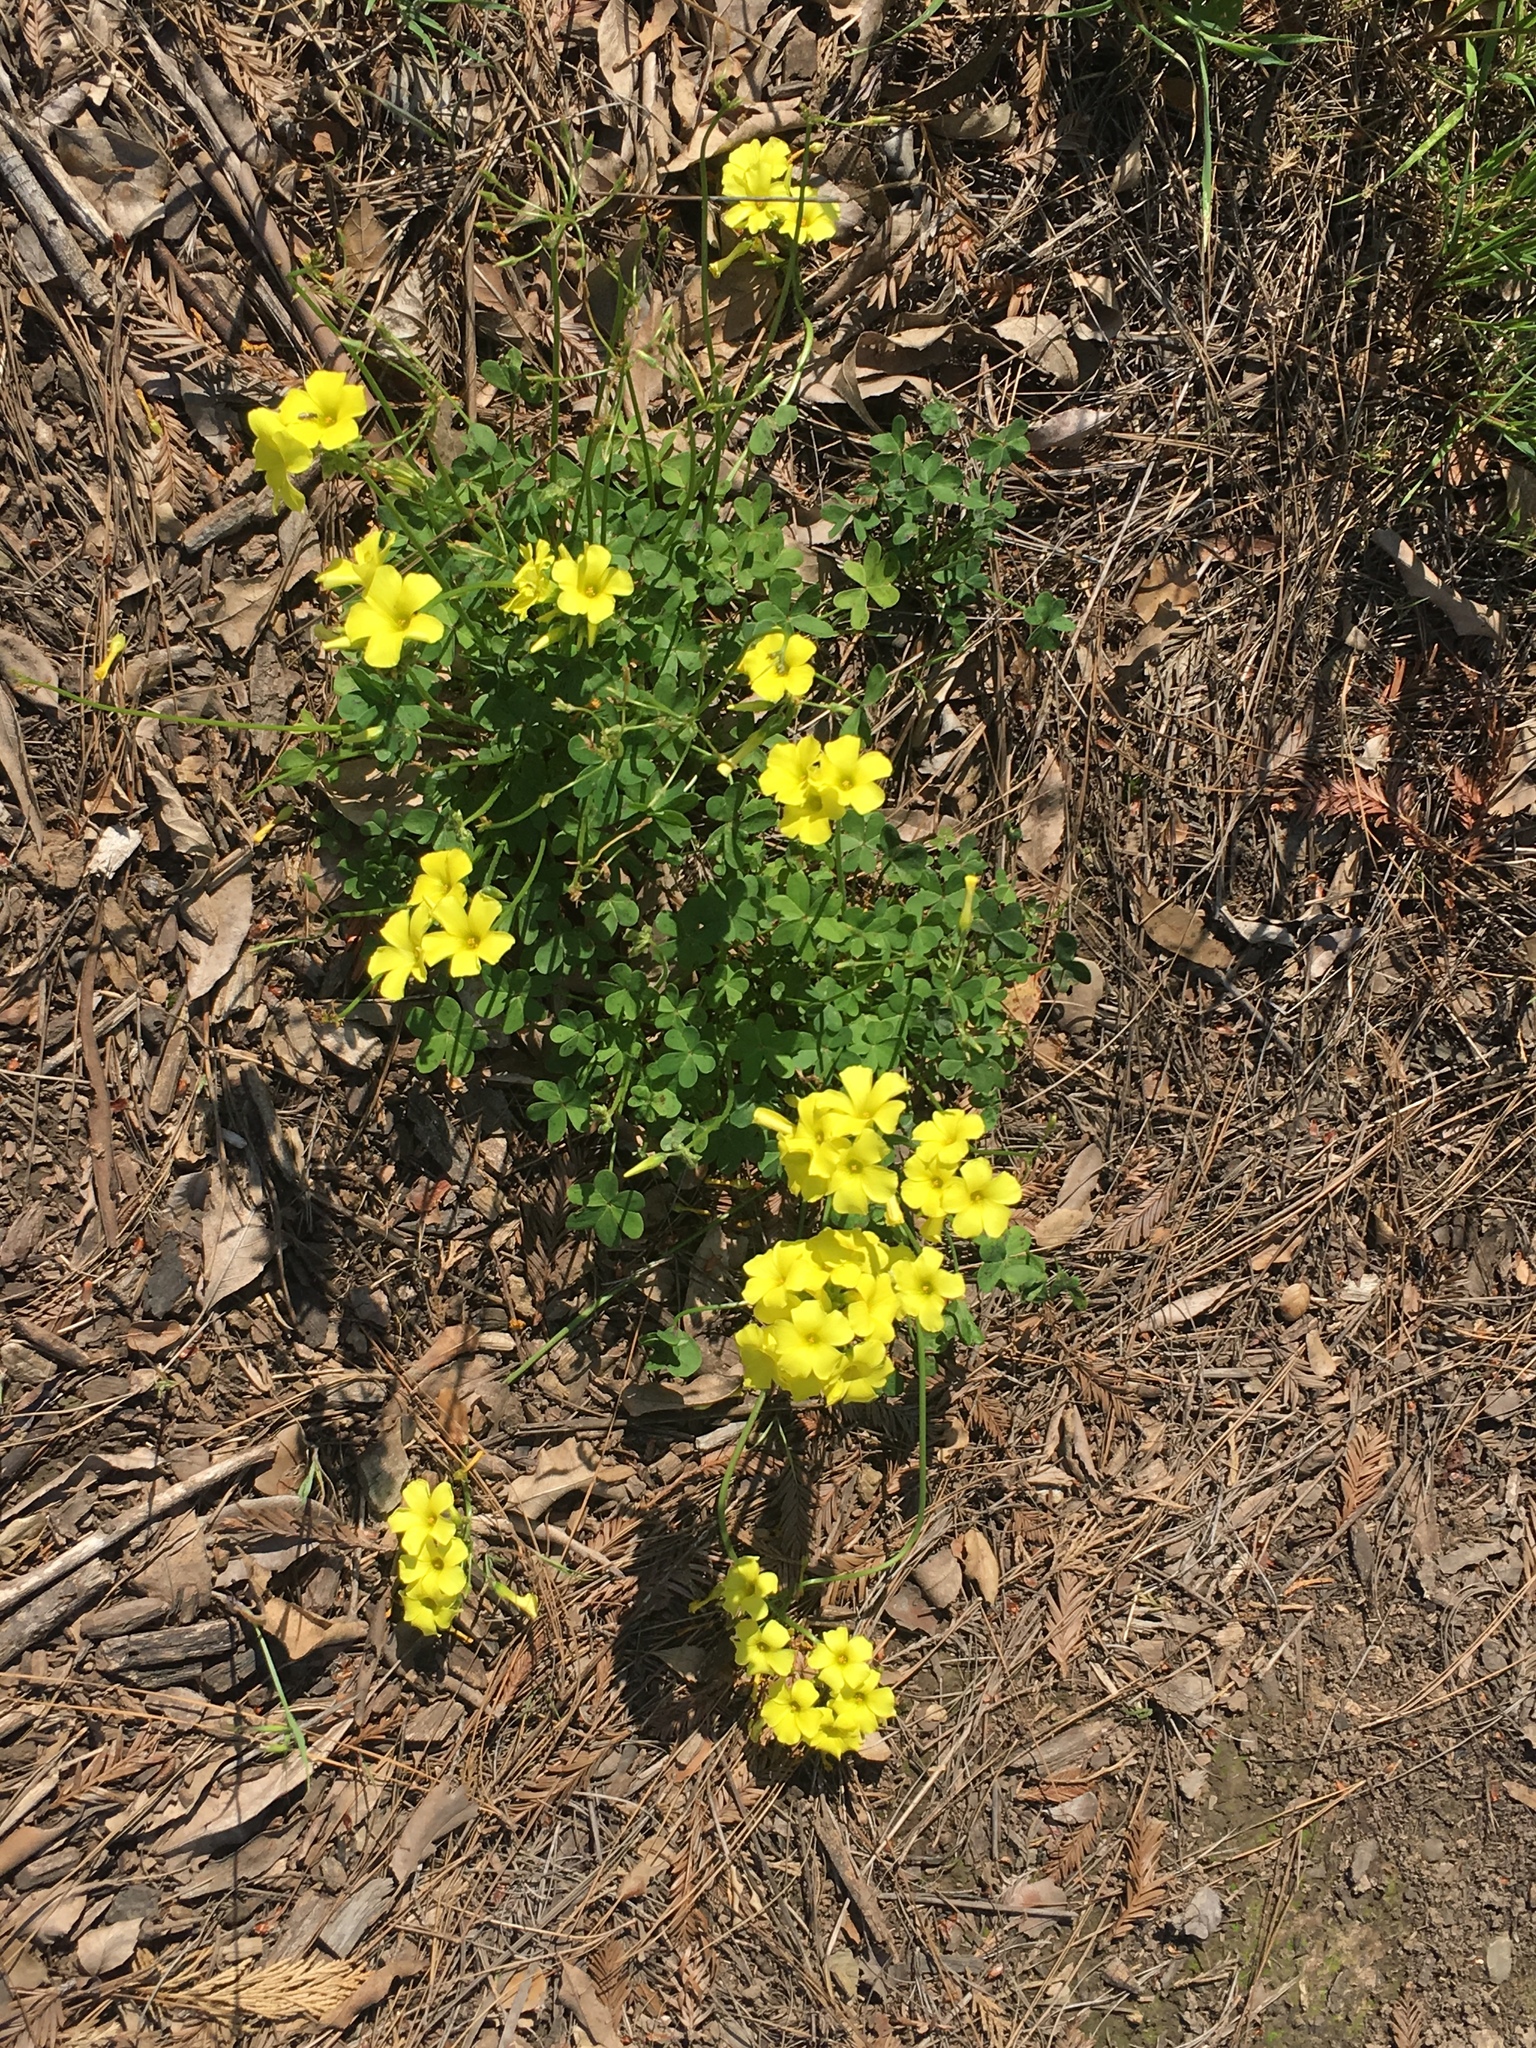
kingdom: Plantae
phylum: Tracheophyta
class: Magnoliopsida
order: Oxalidales
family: Oxalidaceae
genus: Oxalis
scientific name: Oxalis pes-caprae
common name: Bermuda-buttercup
